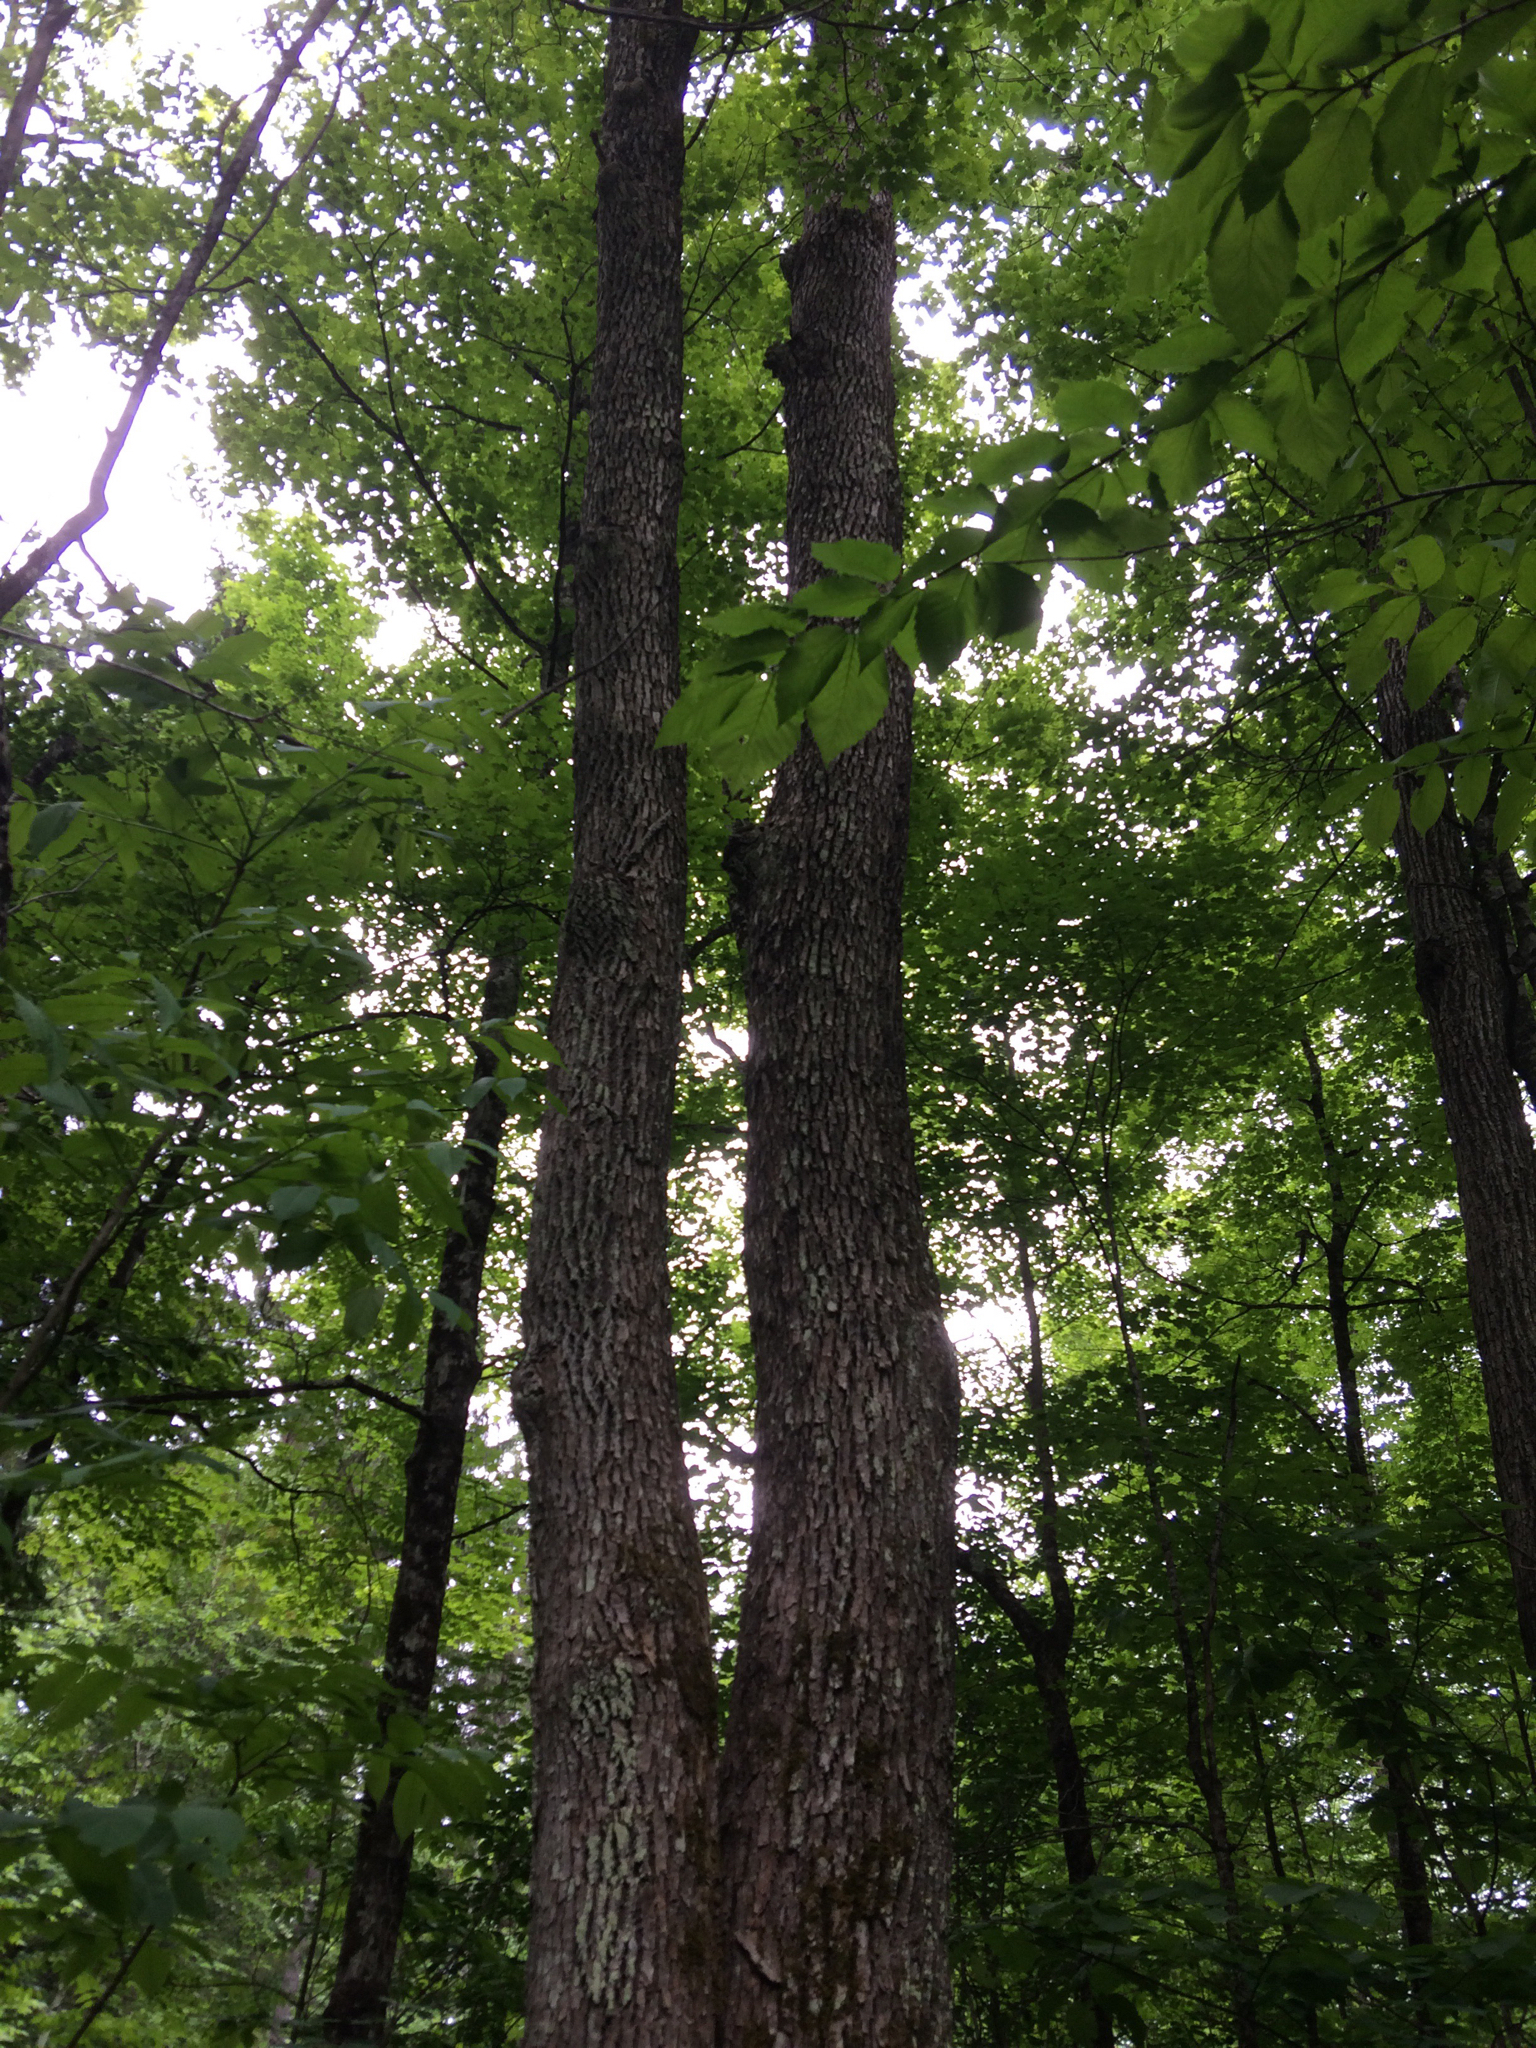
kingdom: Plantae
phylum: Tracheophyta
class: Magnoliopsida
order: Lamiales
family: Oleaceae
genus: Fraxinus
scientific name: Fraxinus americana
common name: White ash
